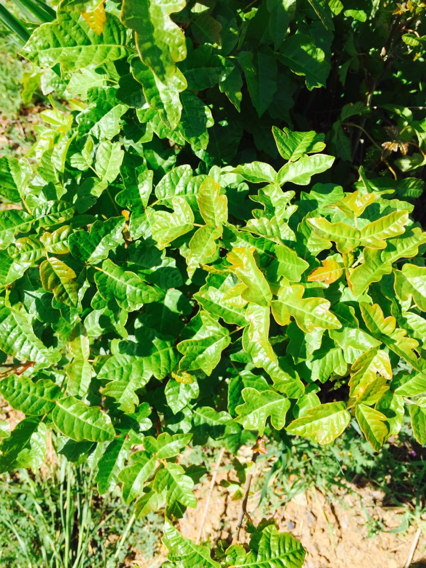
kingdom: Plantae
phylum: Tracheophyta
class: Magnoliopsida
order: Sapindales
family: Anacardiaceae
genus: Toxicodendron
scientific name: Toxicodendron diversilobum
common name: Pacific poison-oak
